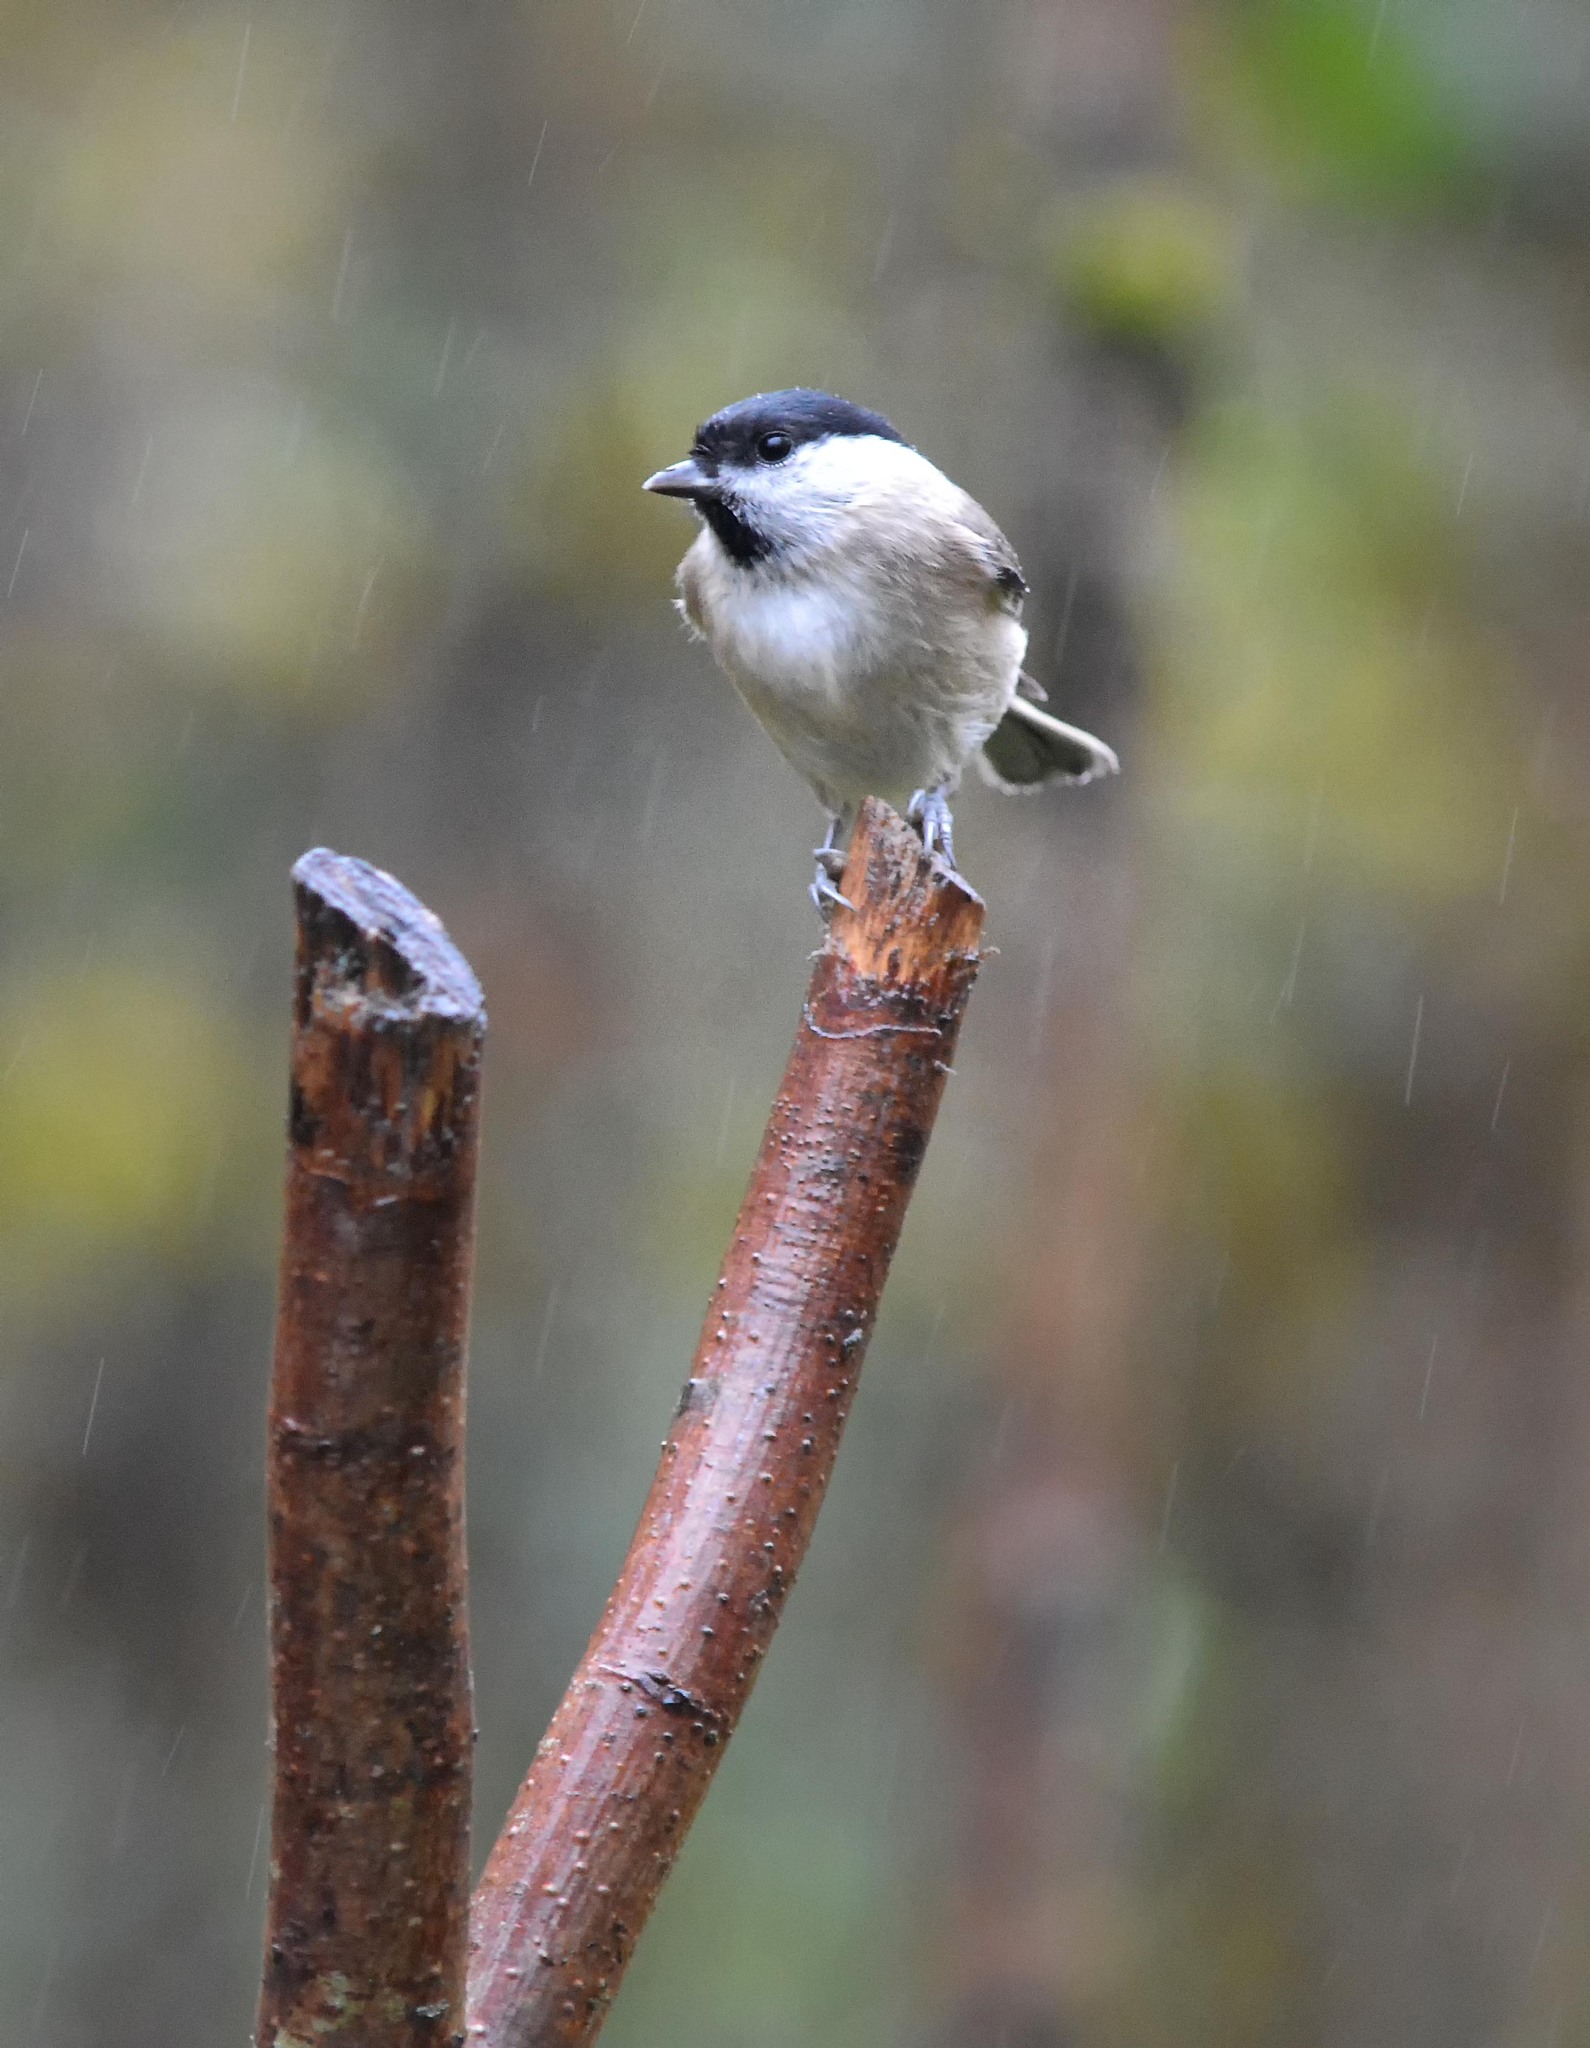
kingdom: Animalia
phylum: Chordata
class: Aves
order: Passeriformes
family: Paridae
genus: Poecile
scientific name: Poecile palustris
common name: Marsh tit
